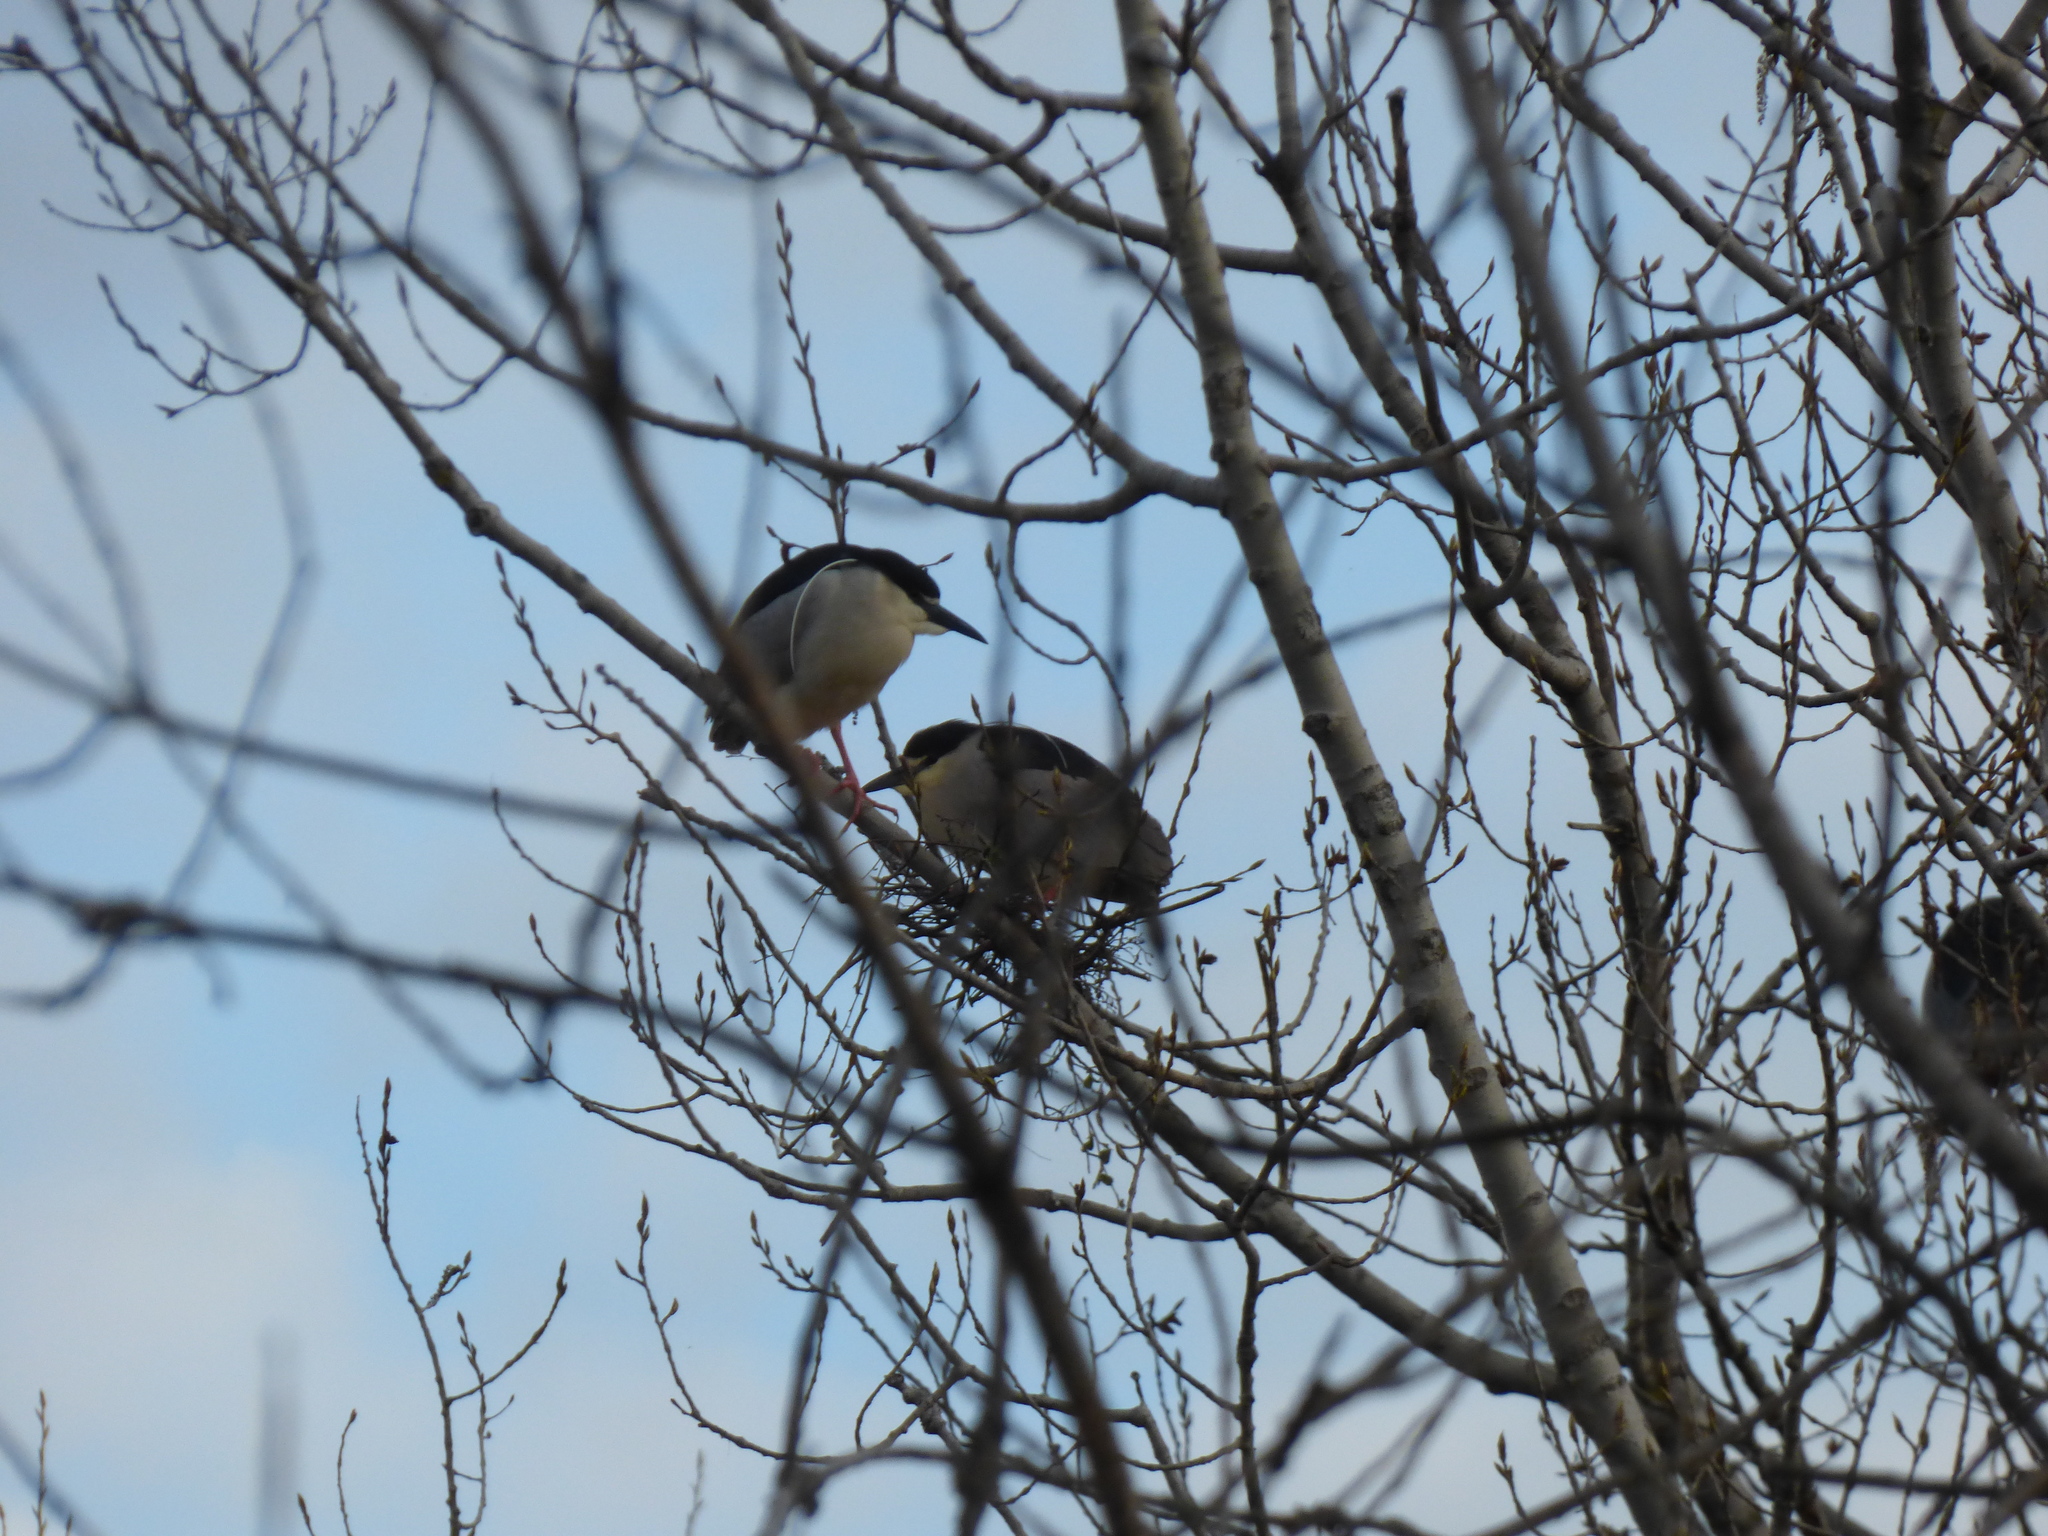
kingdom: Animalia
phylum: Chordata
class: Aves
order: Pelecaniformes
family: Ardeidae
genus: Nycticorax
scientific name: Nycticorax nycticorax
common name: Black-crowned night heron
